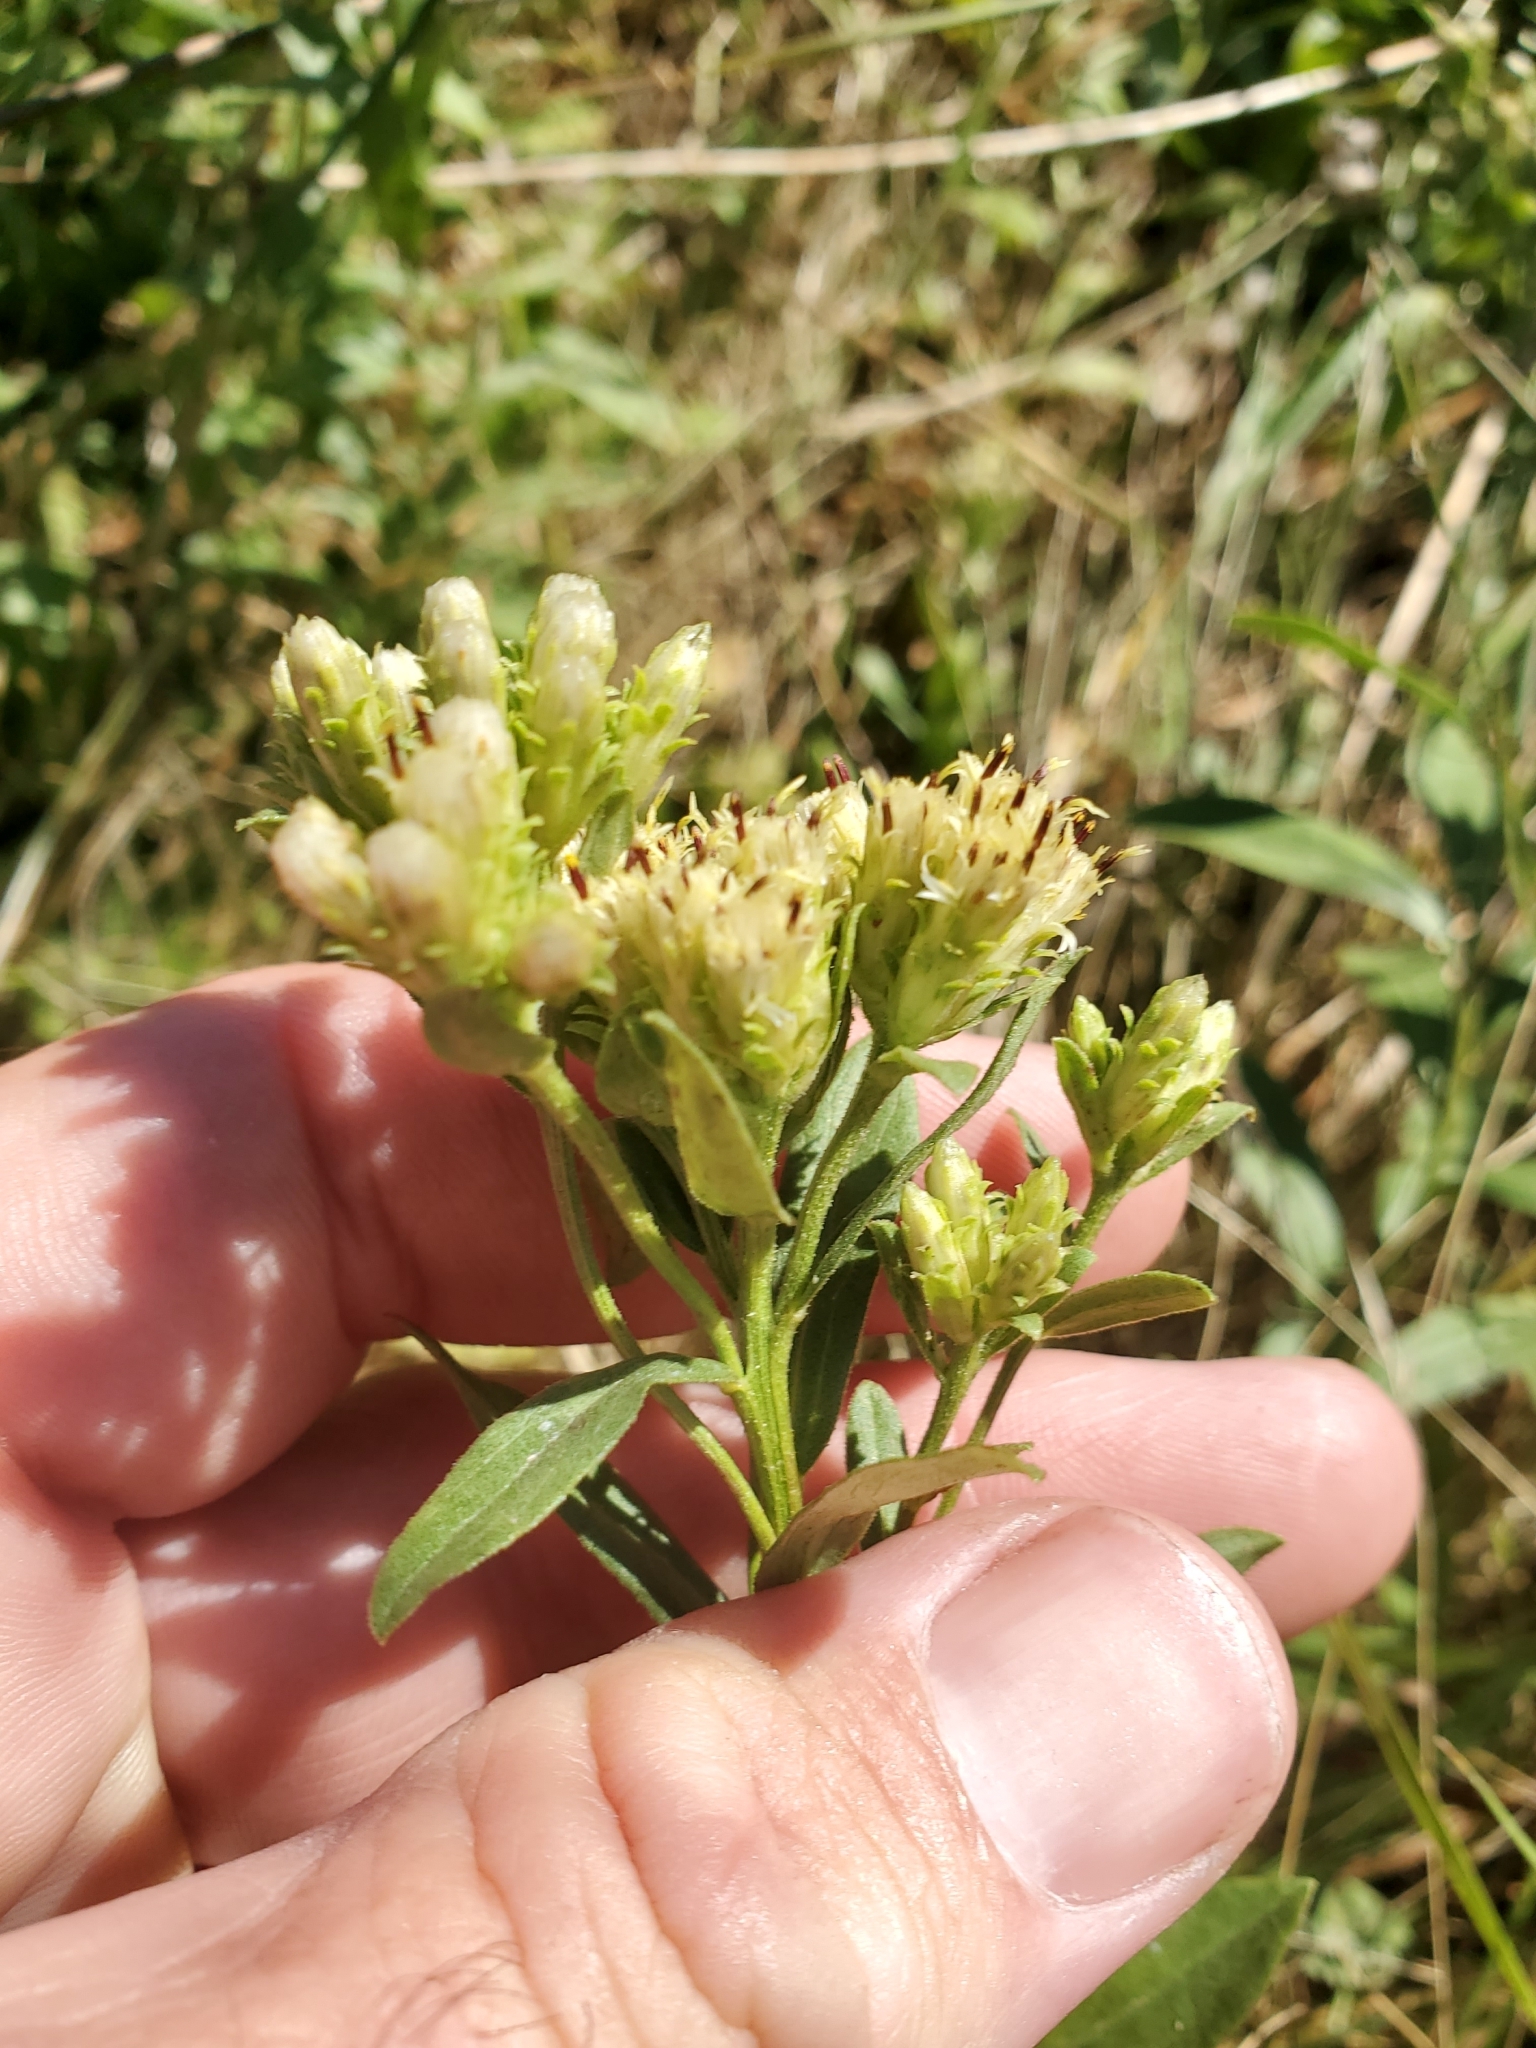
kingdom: Plantae
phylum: Tracheophyta
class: Magnoliopsida
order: Asterales
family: Asteraceae
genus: Sericocarpus
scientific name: Sericocarpus rigidus
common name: Columbia white-top aster
